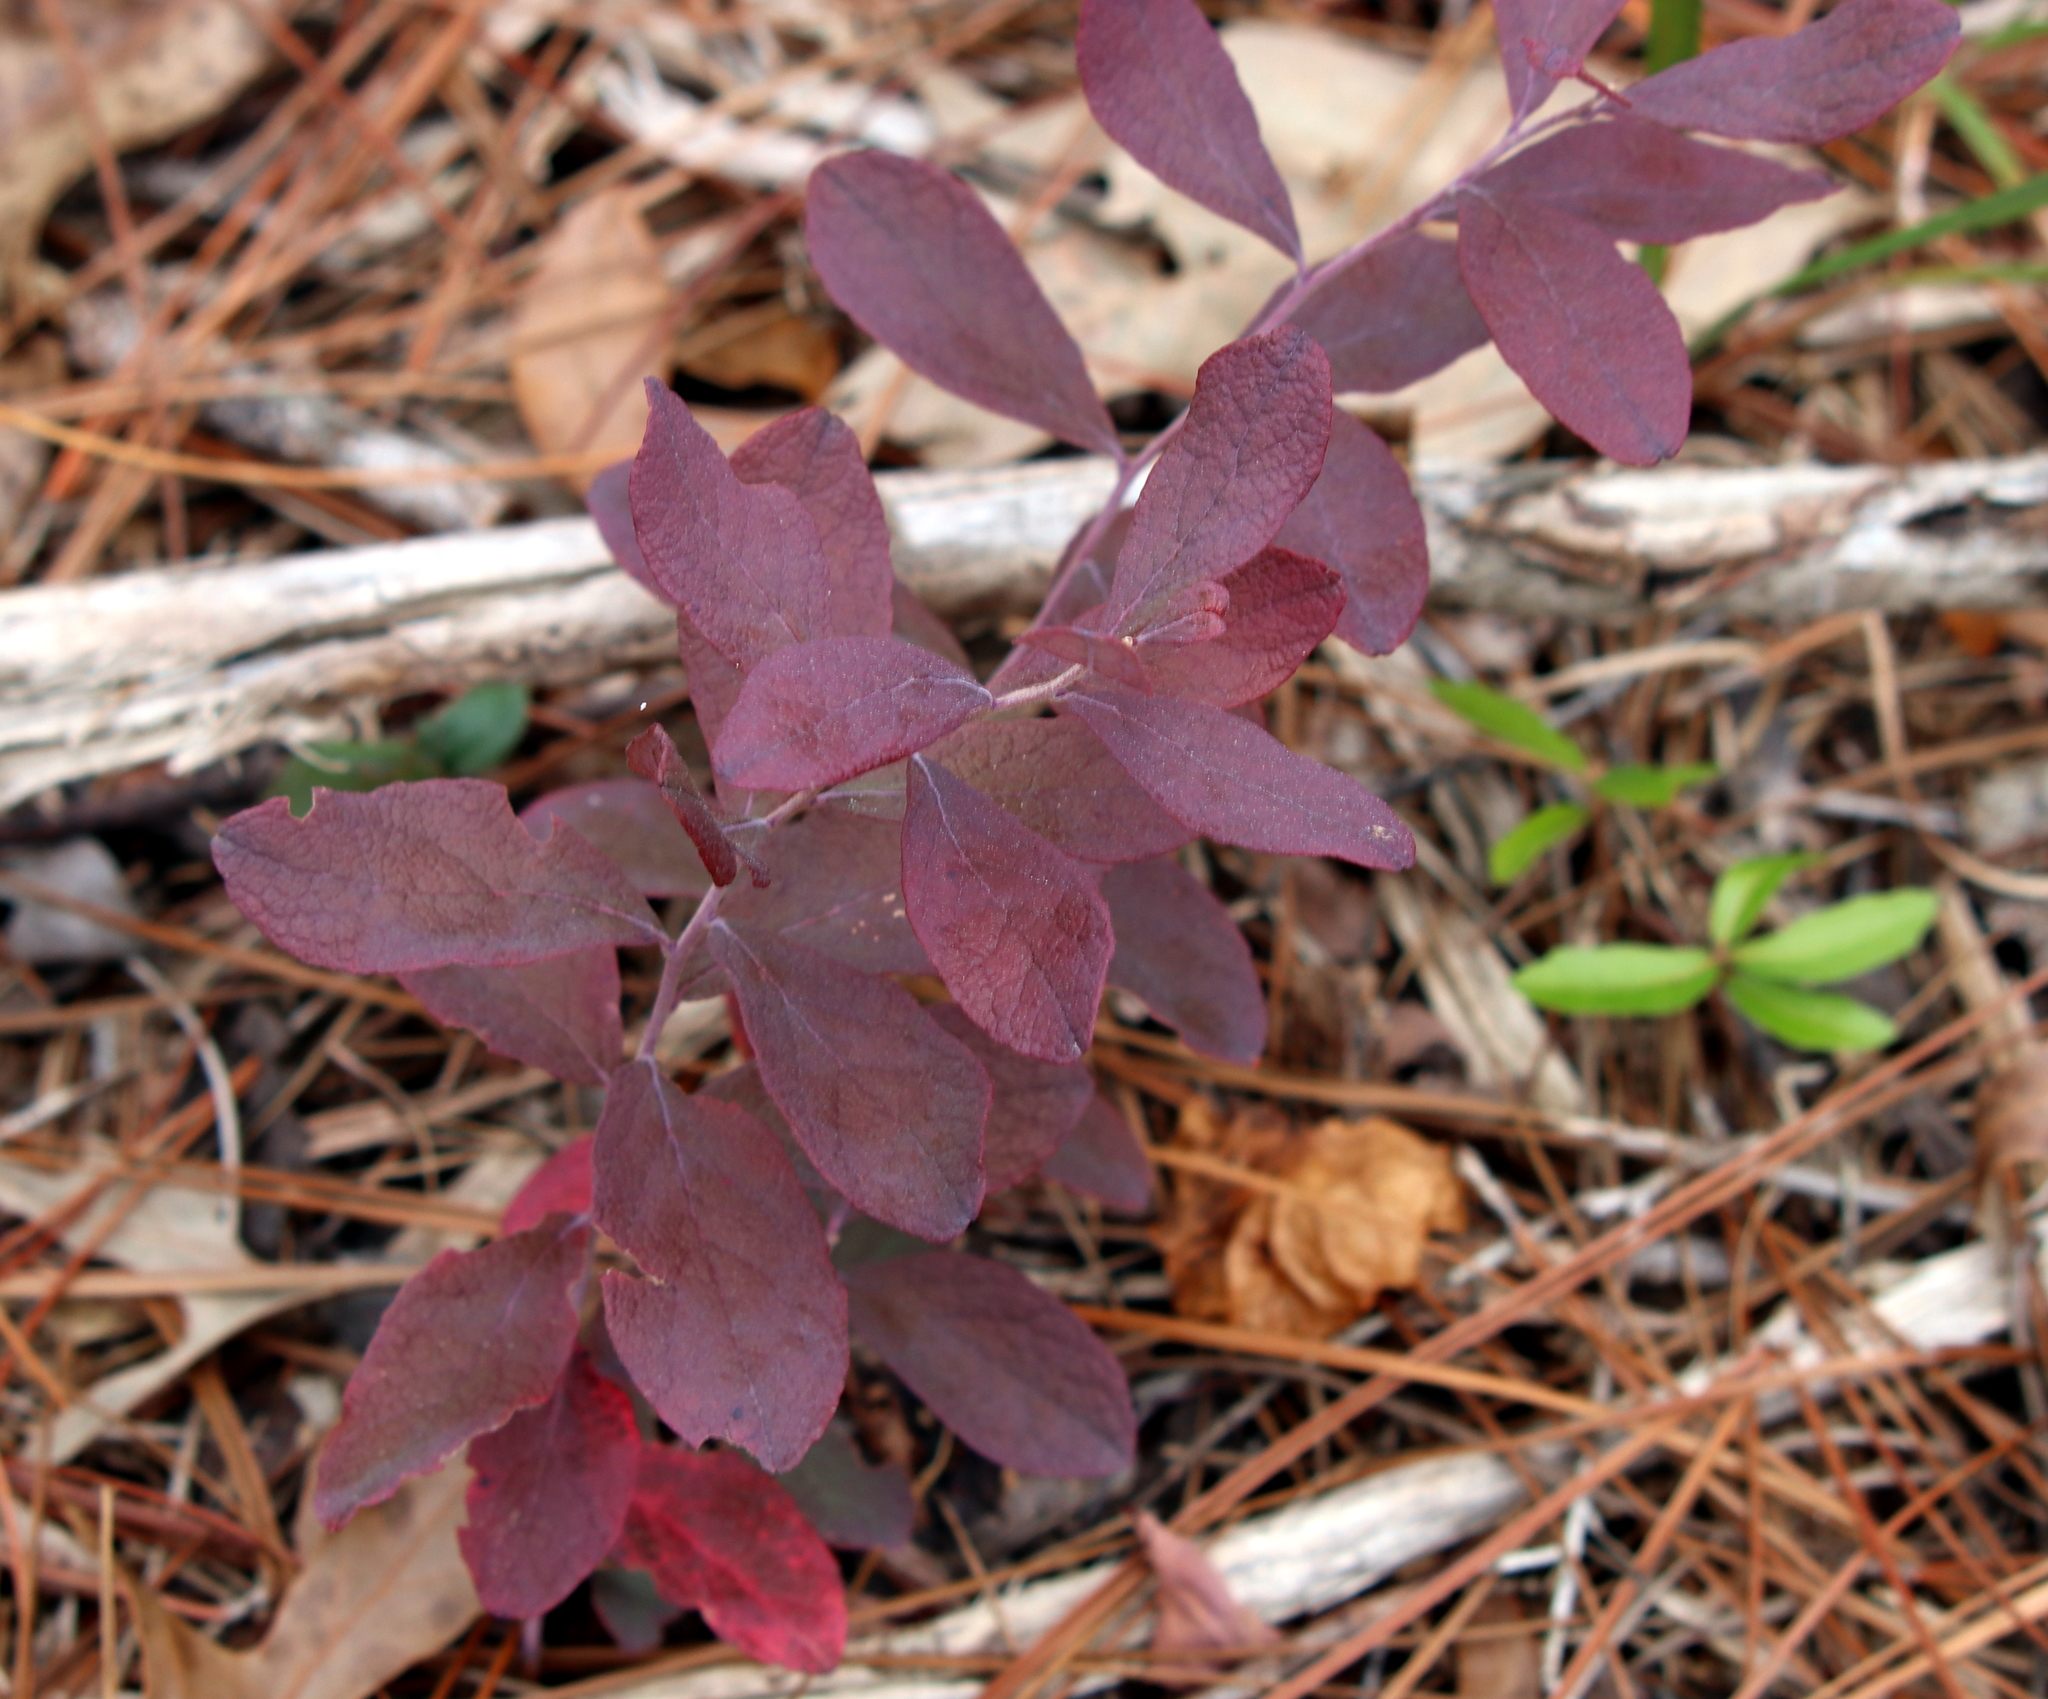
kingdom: Plantae
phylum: Tracheophyta
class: Magnoliopsida
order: Ericales
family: Ericaceae
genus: Gaylussacia
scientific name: Gaylussacia nana
